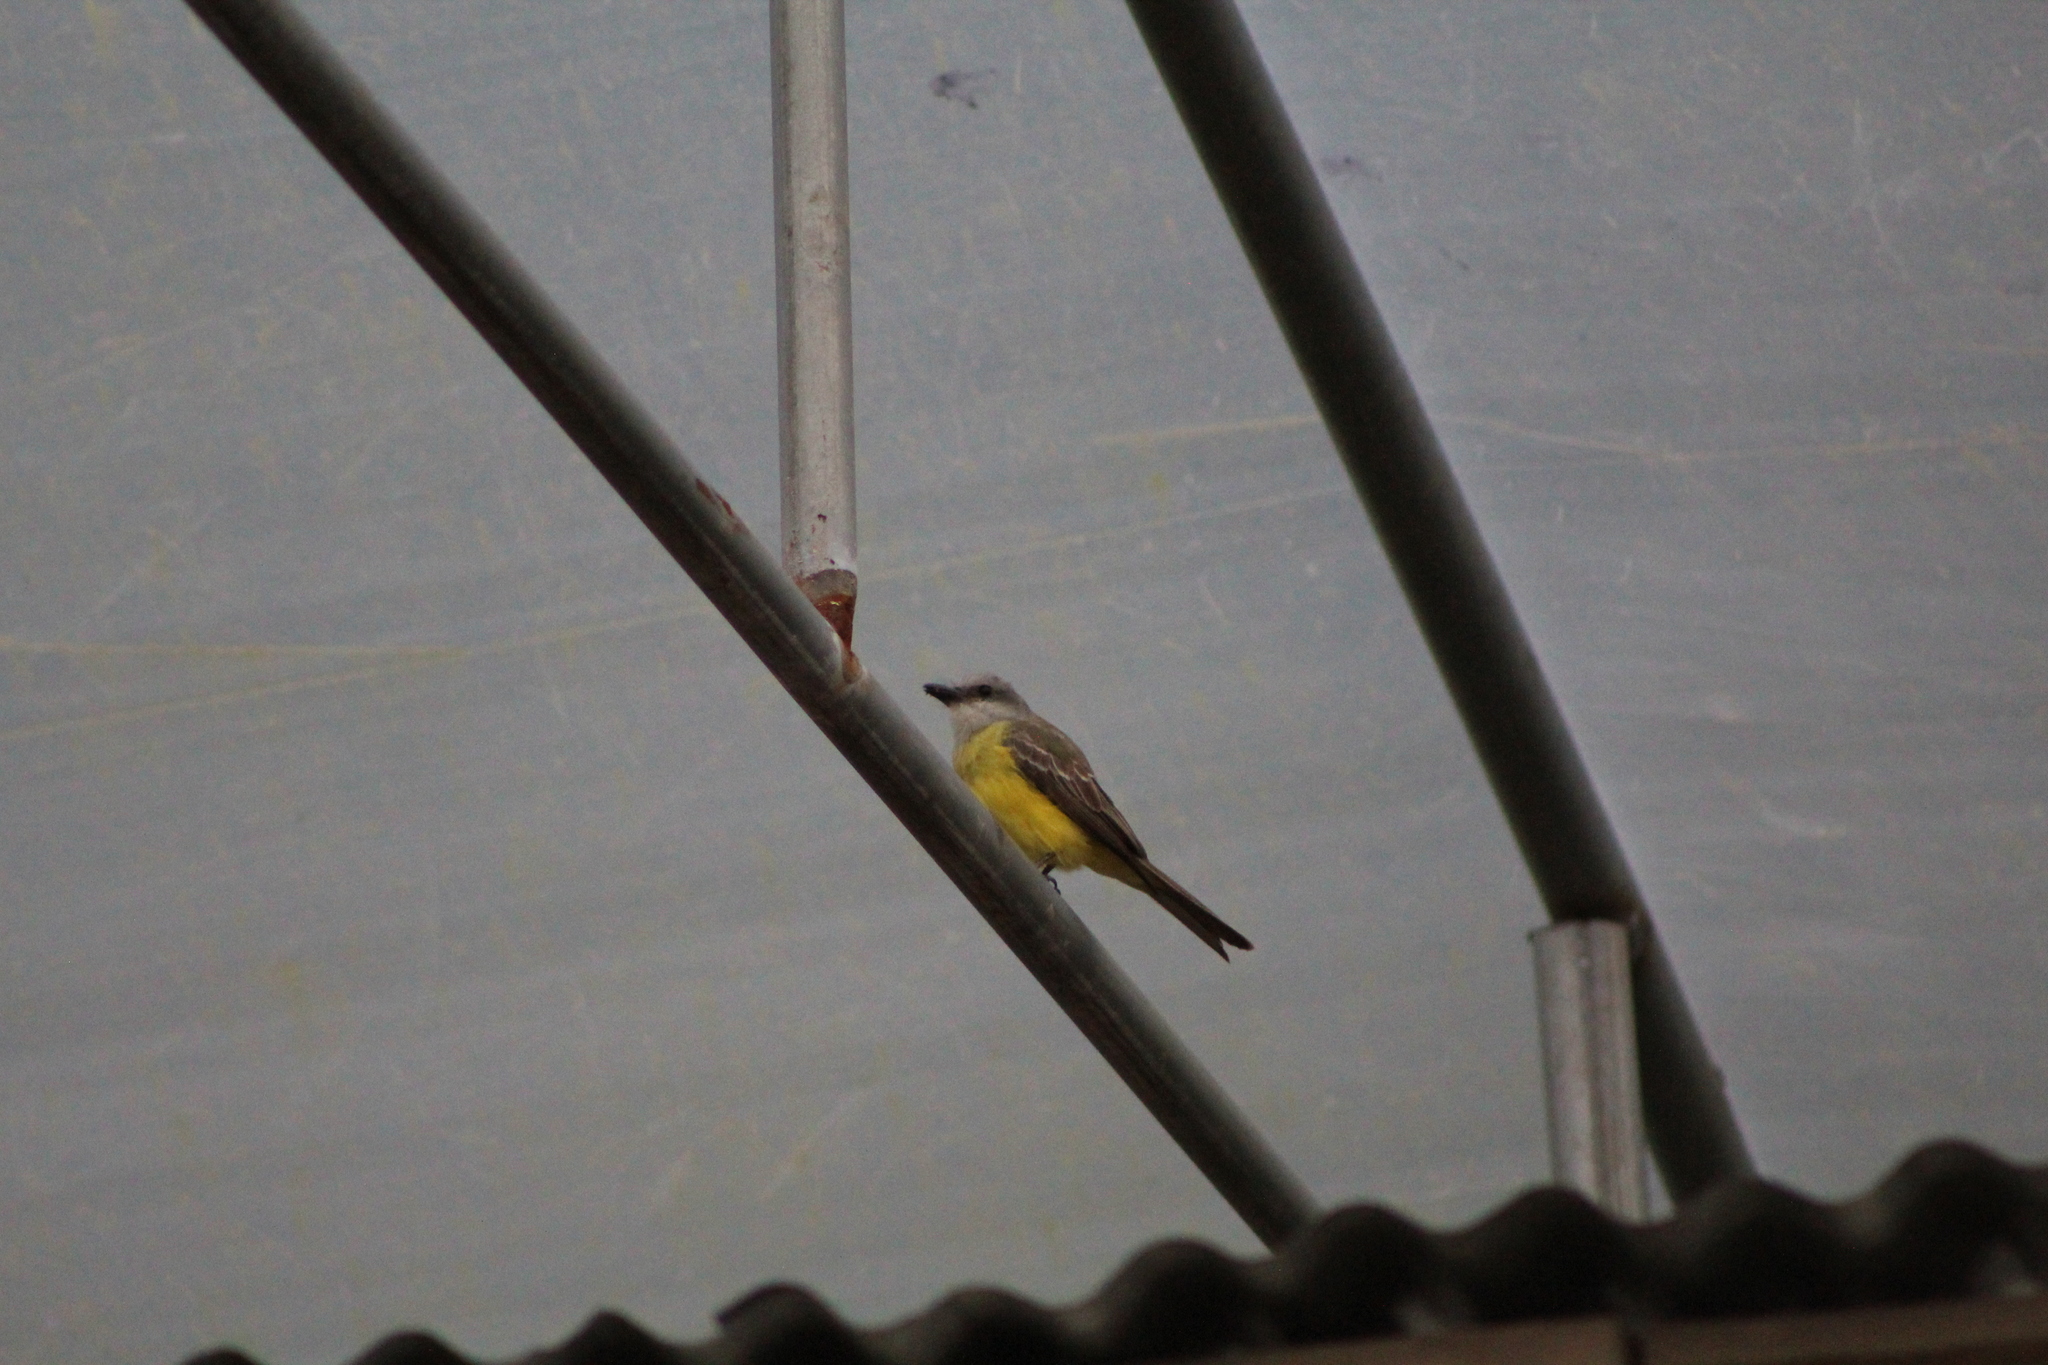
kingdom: Animalia
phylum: Chordata
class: Aves
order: Passeriformes
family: Tyrannidae
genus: Tyrannus
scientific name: Tyrannus melancholicus
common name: Tropical kingbird
